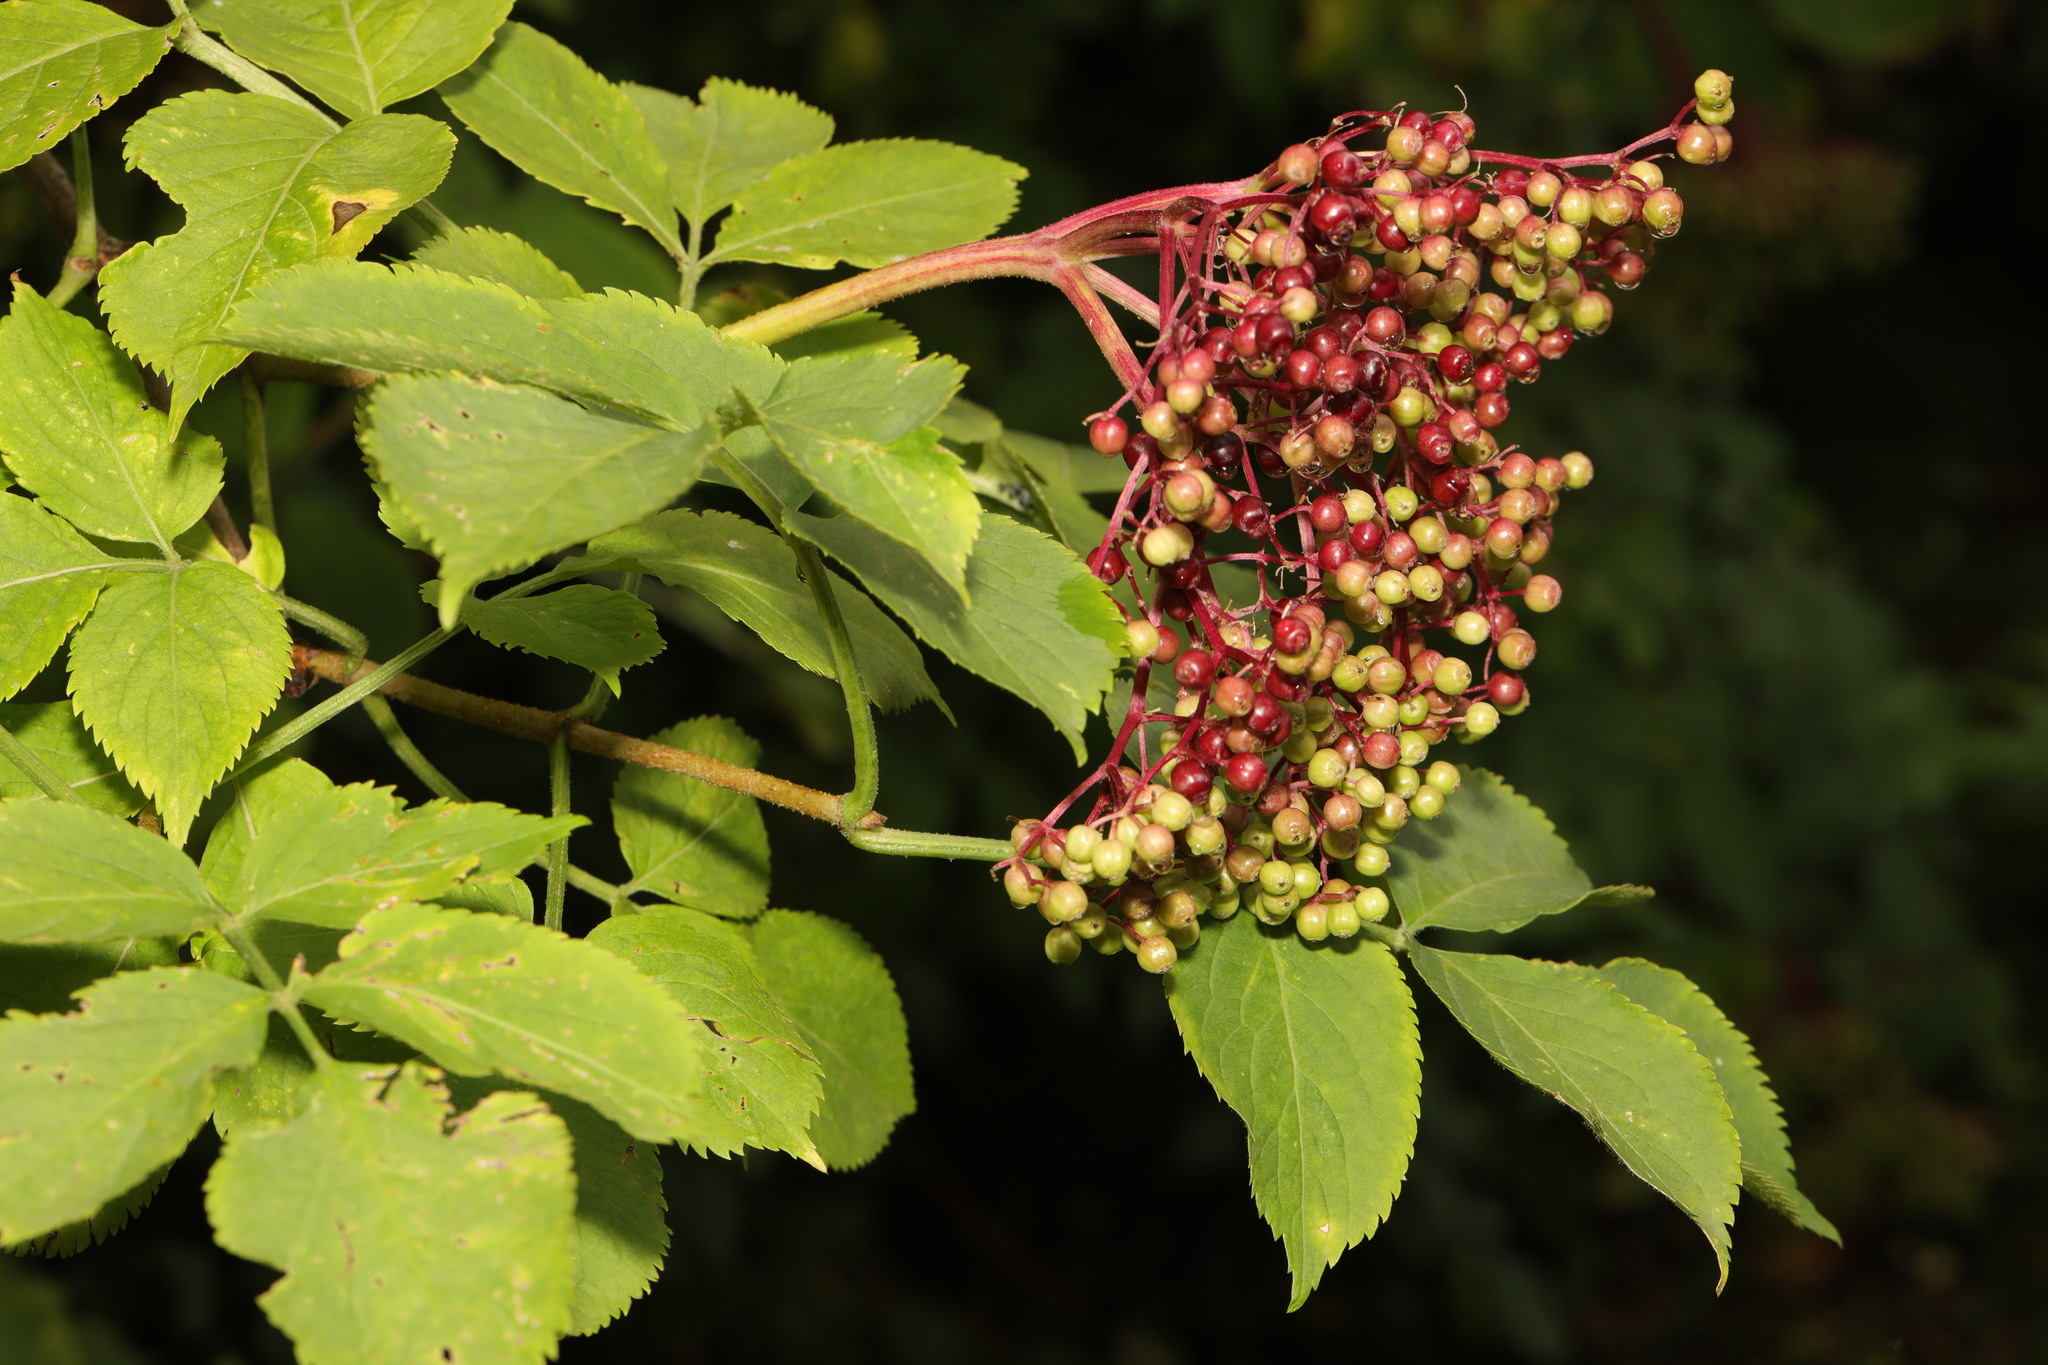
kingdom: Plantae
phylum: Tracheophyta
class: Magnoliopsida
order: Dipsacales
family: Viburnaceae
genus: Sambucus
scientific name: Sambucus nigra
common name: Elder
